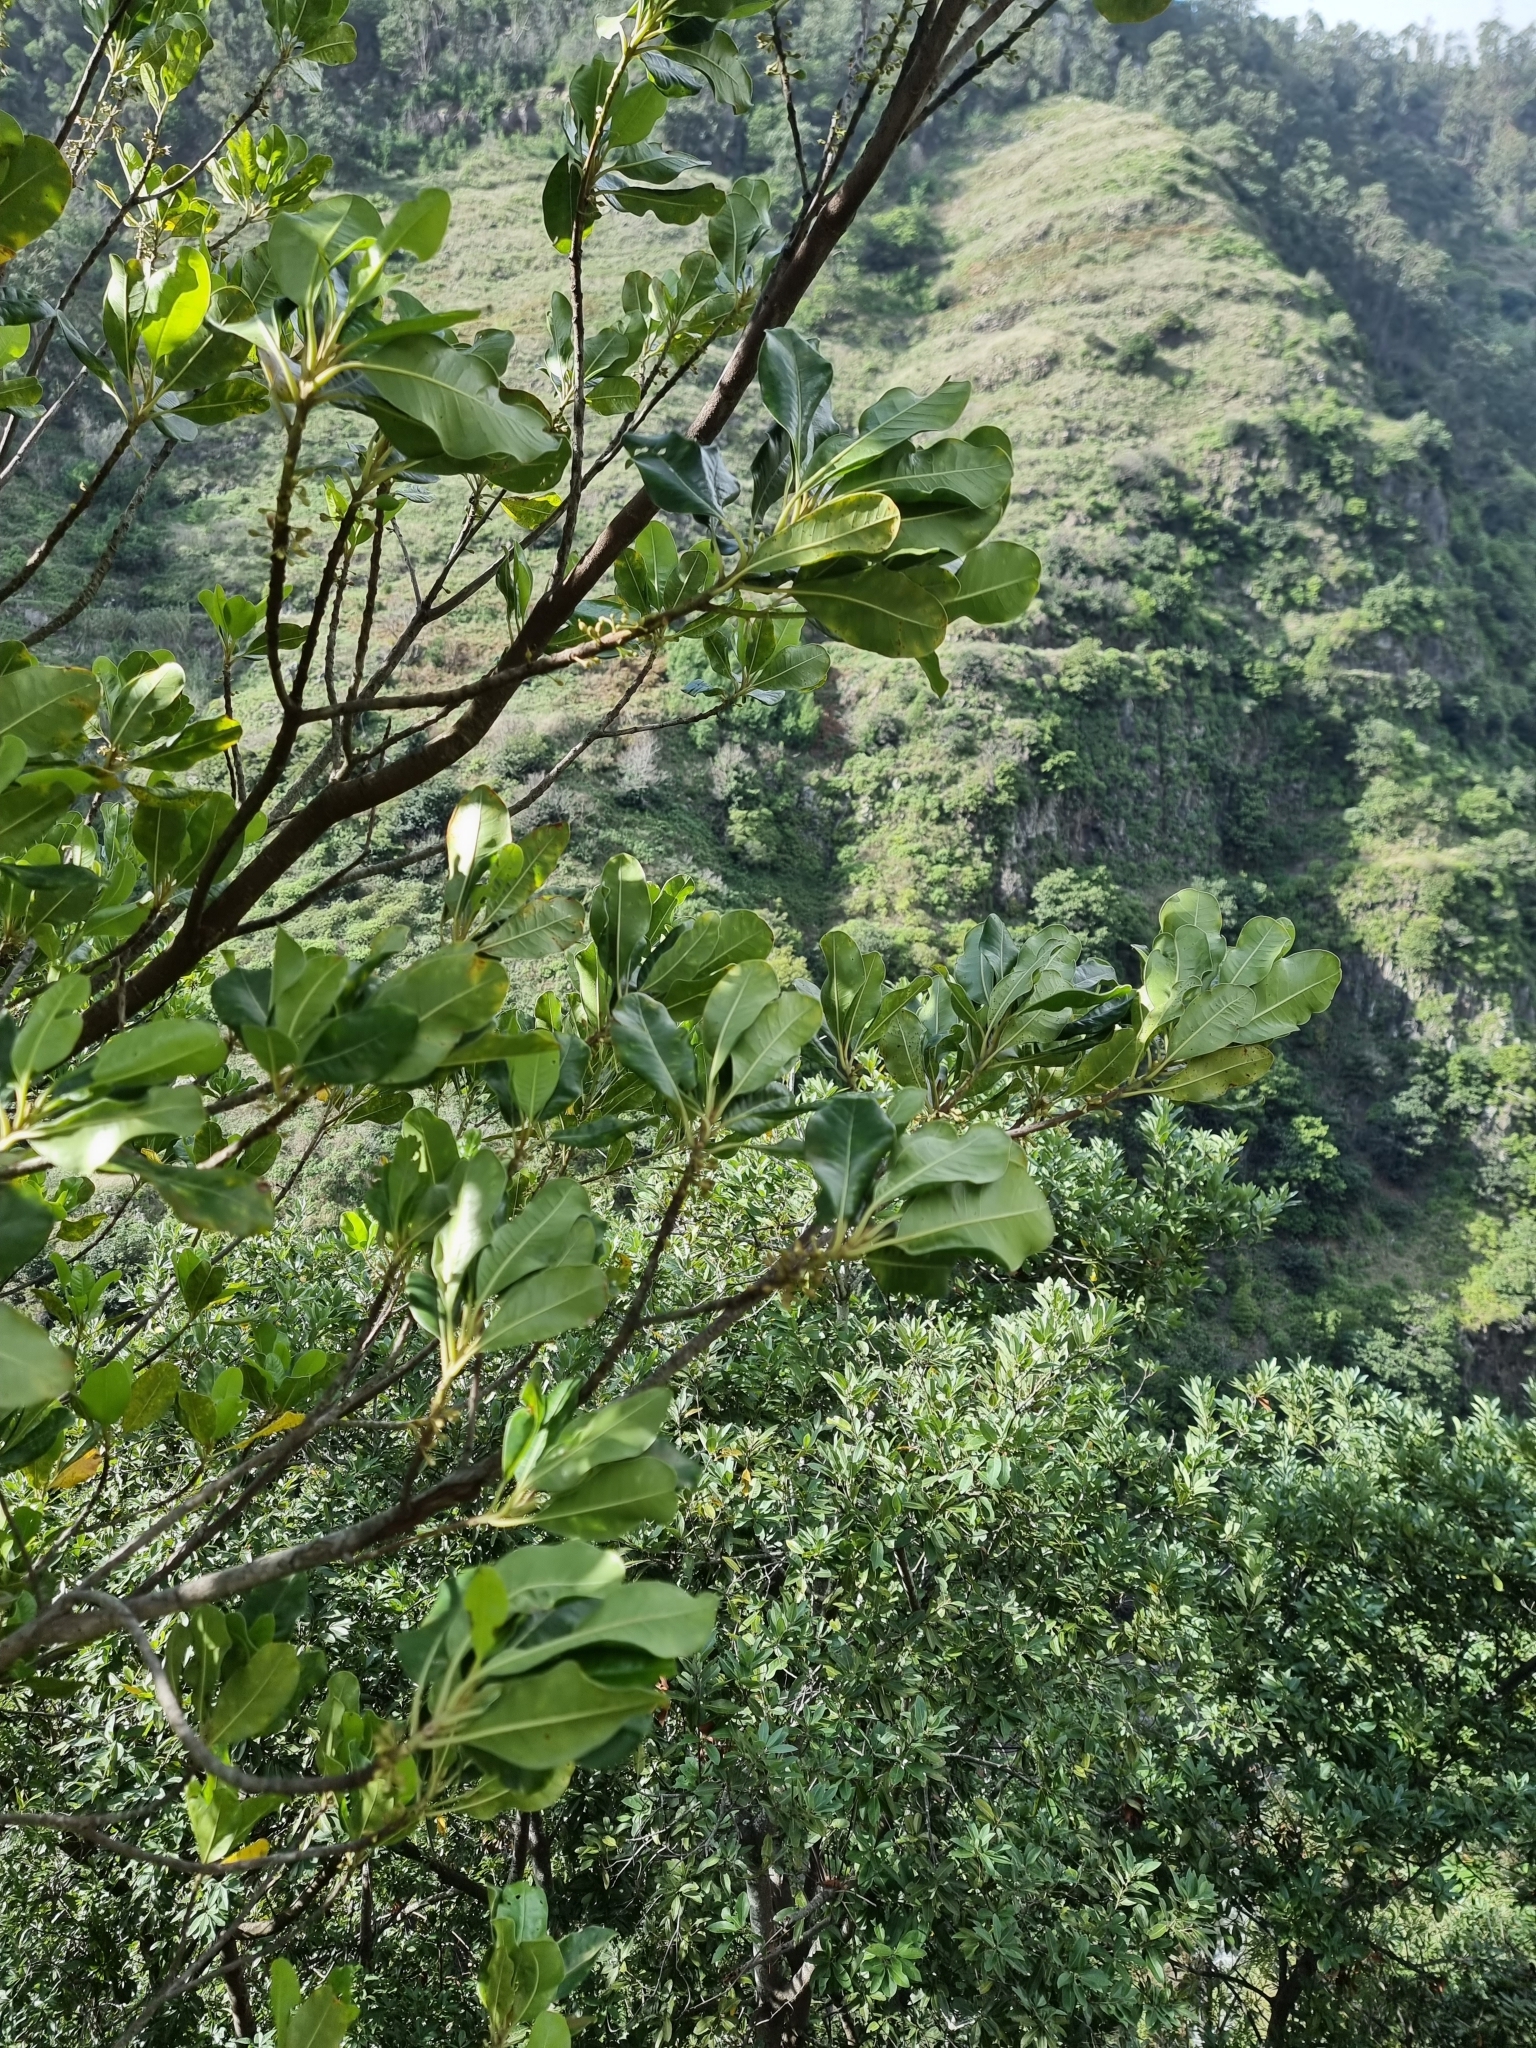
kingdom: Plantae
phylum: Tracheophyta
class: Magnoliopsida
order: Ericales
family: Sapotaceae
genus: Sideroxylon
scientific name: Sideroxylon mirmulans
